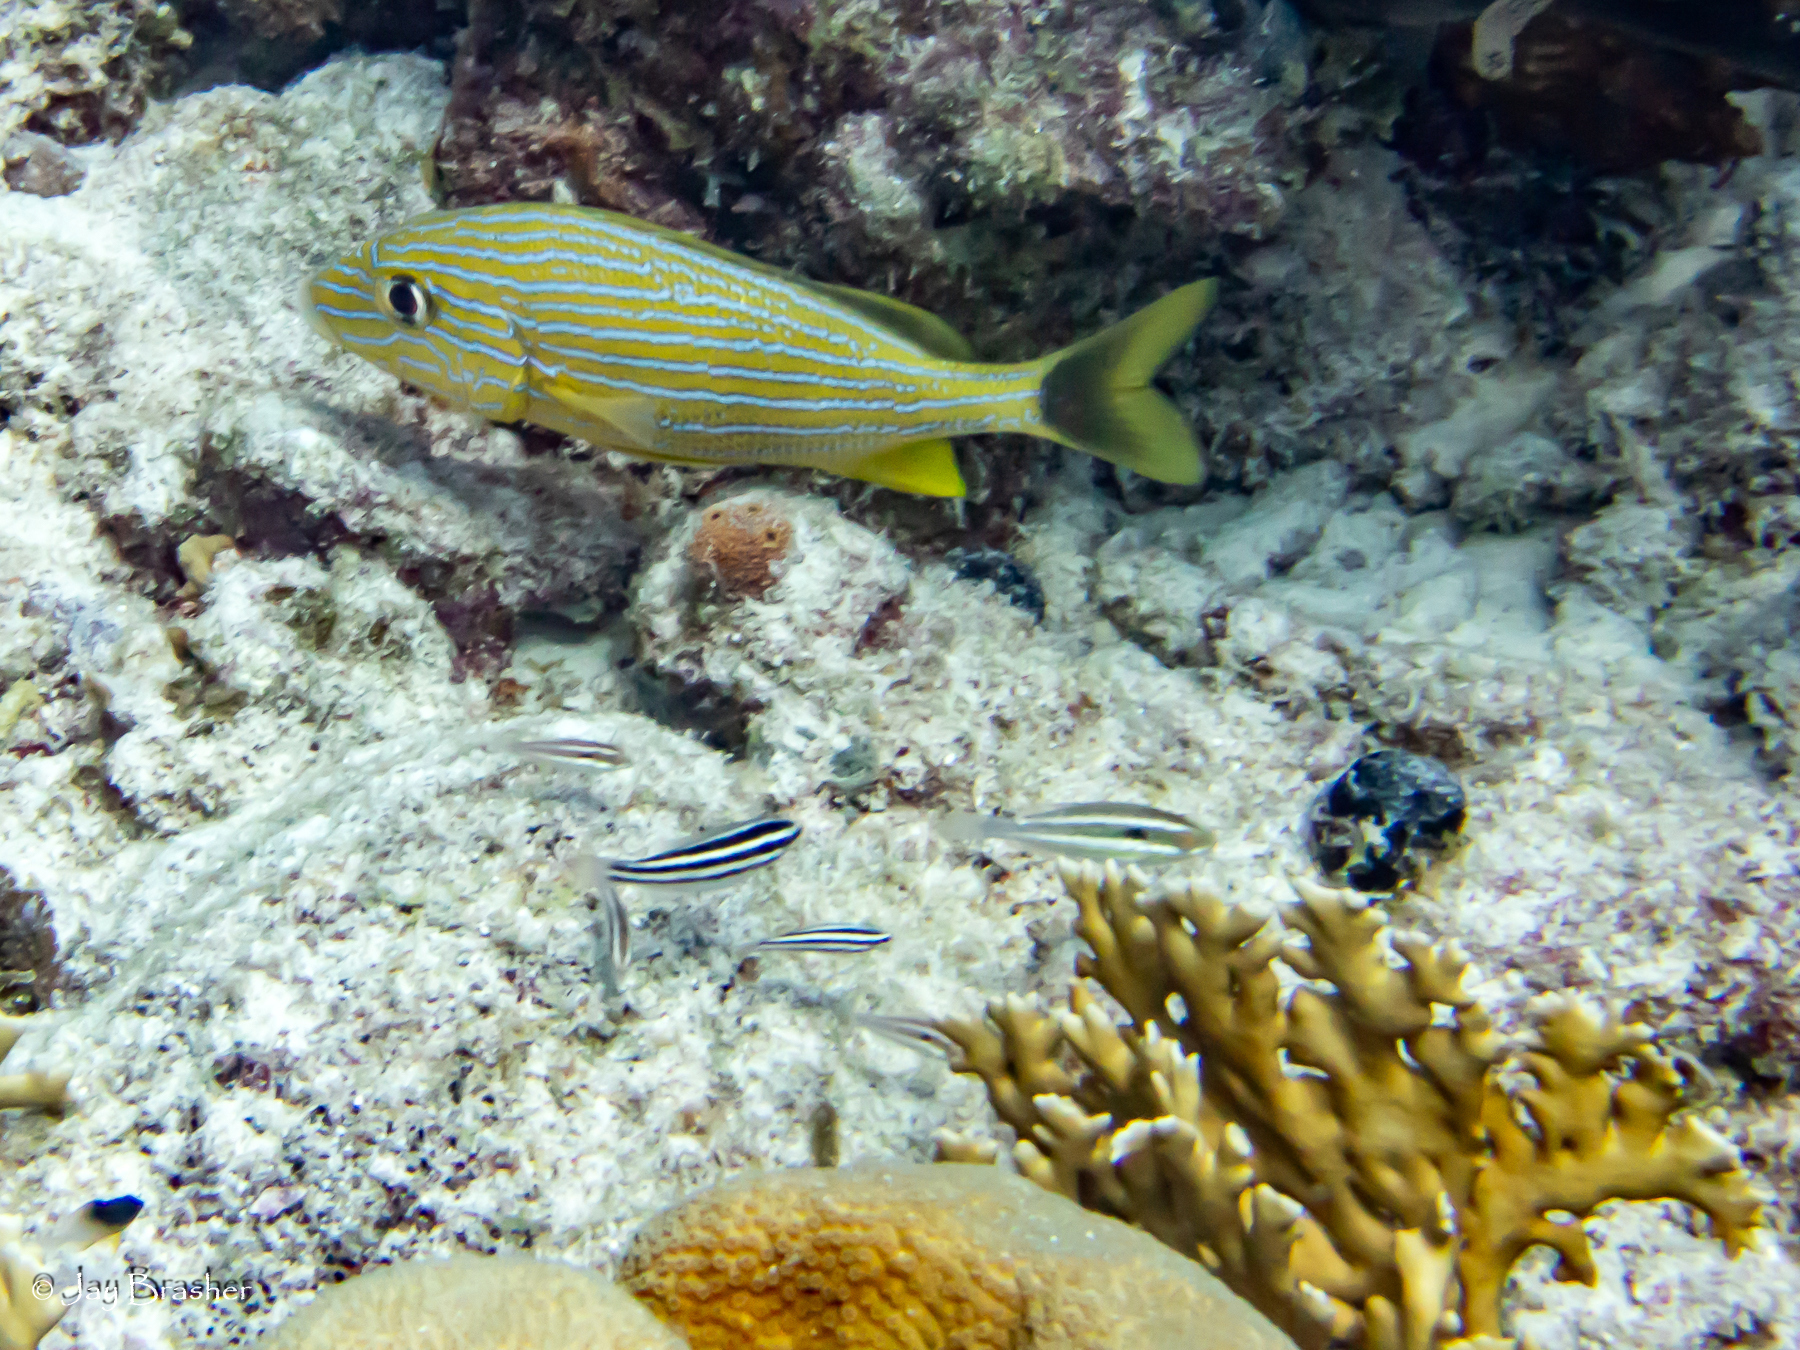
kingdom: Animalia
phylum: Chordata
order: Perciformes
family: Haemulidae
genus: Haemulon
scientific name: Haemulon sciurus
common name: Bluestriped grunt
